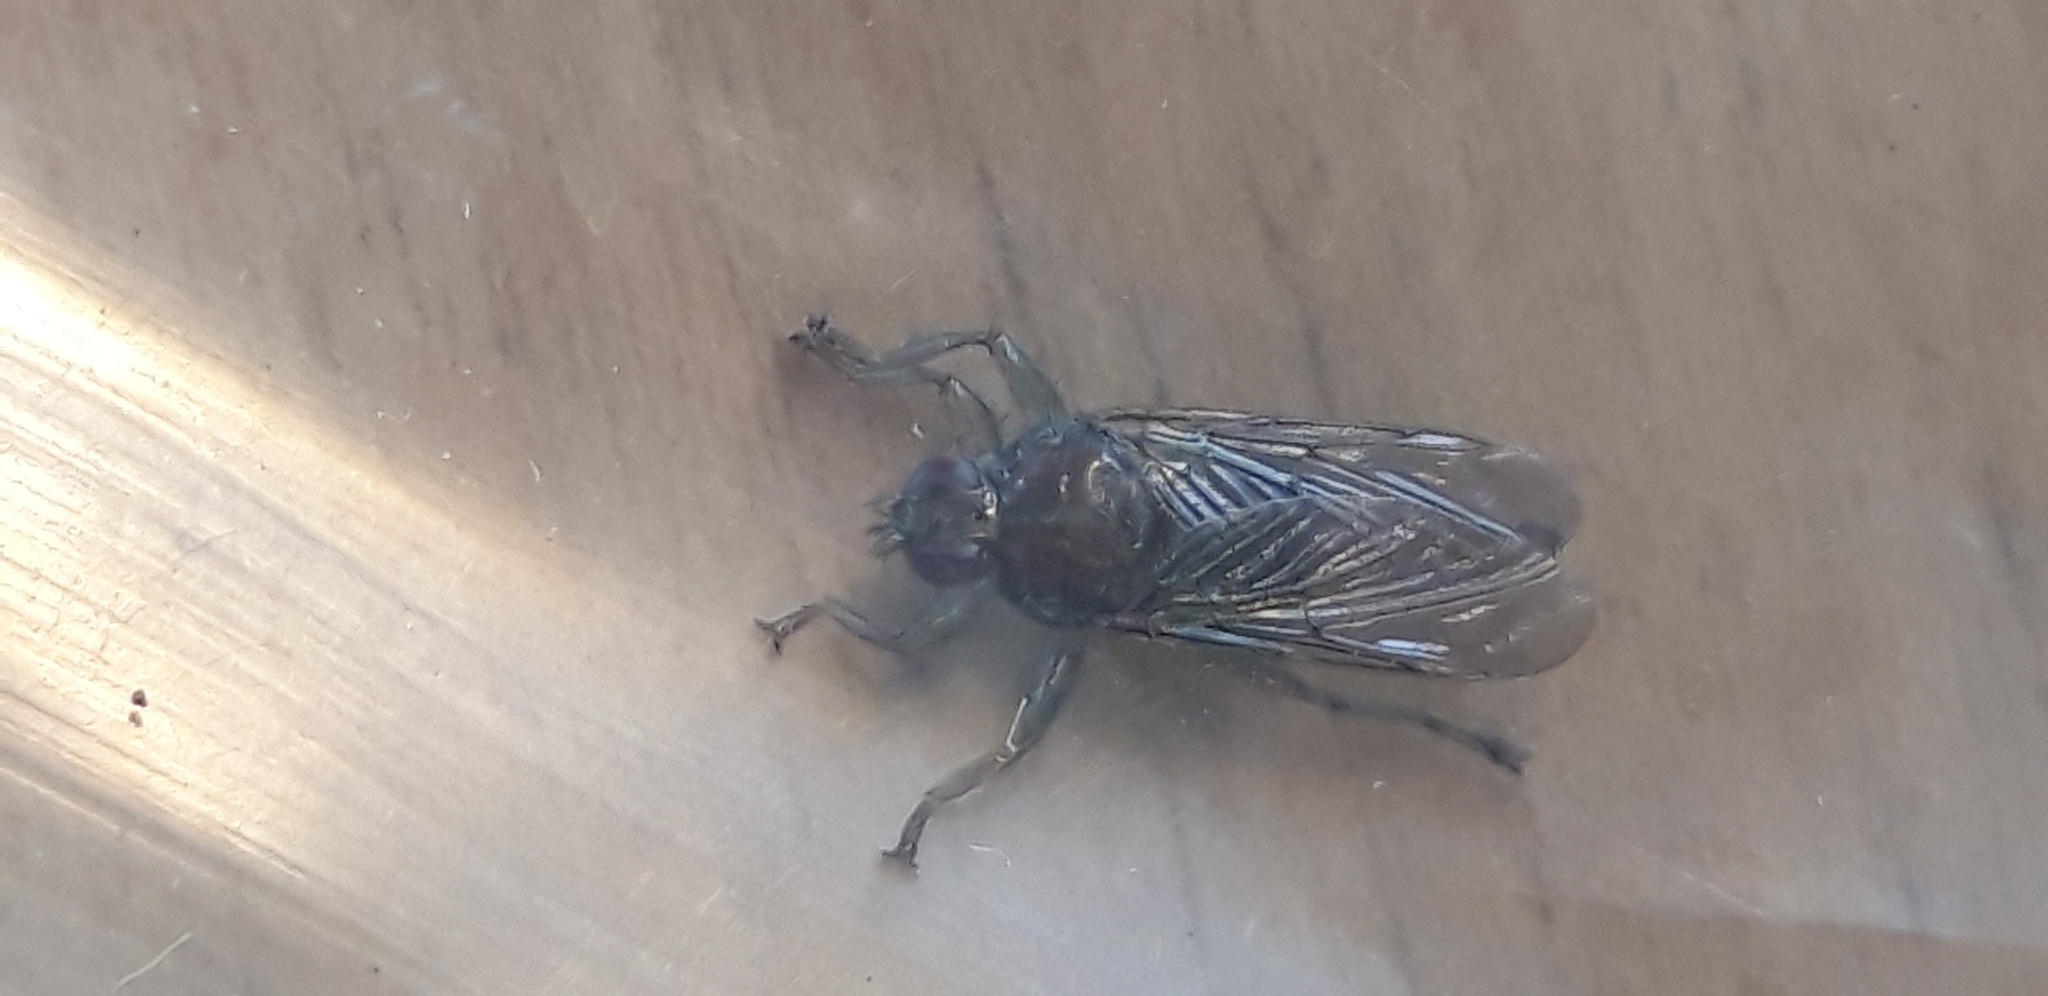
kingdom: Animalia
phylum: Arthropoda
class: Insecta
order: Diptera
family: Hippoboscidae
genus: Ornithomya
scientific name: Ornithomya avicularia
